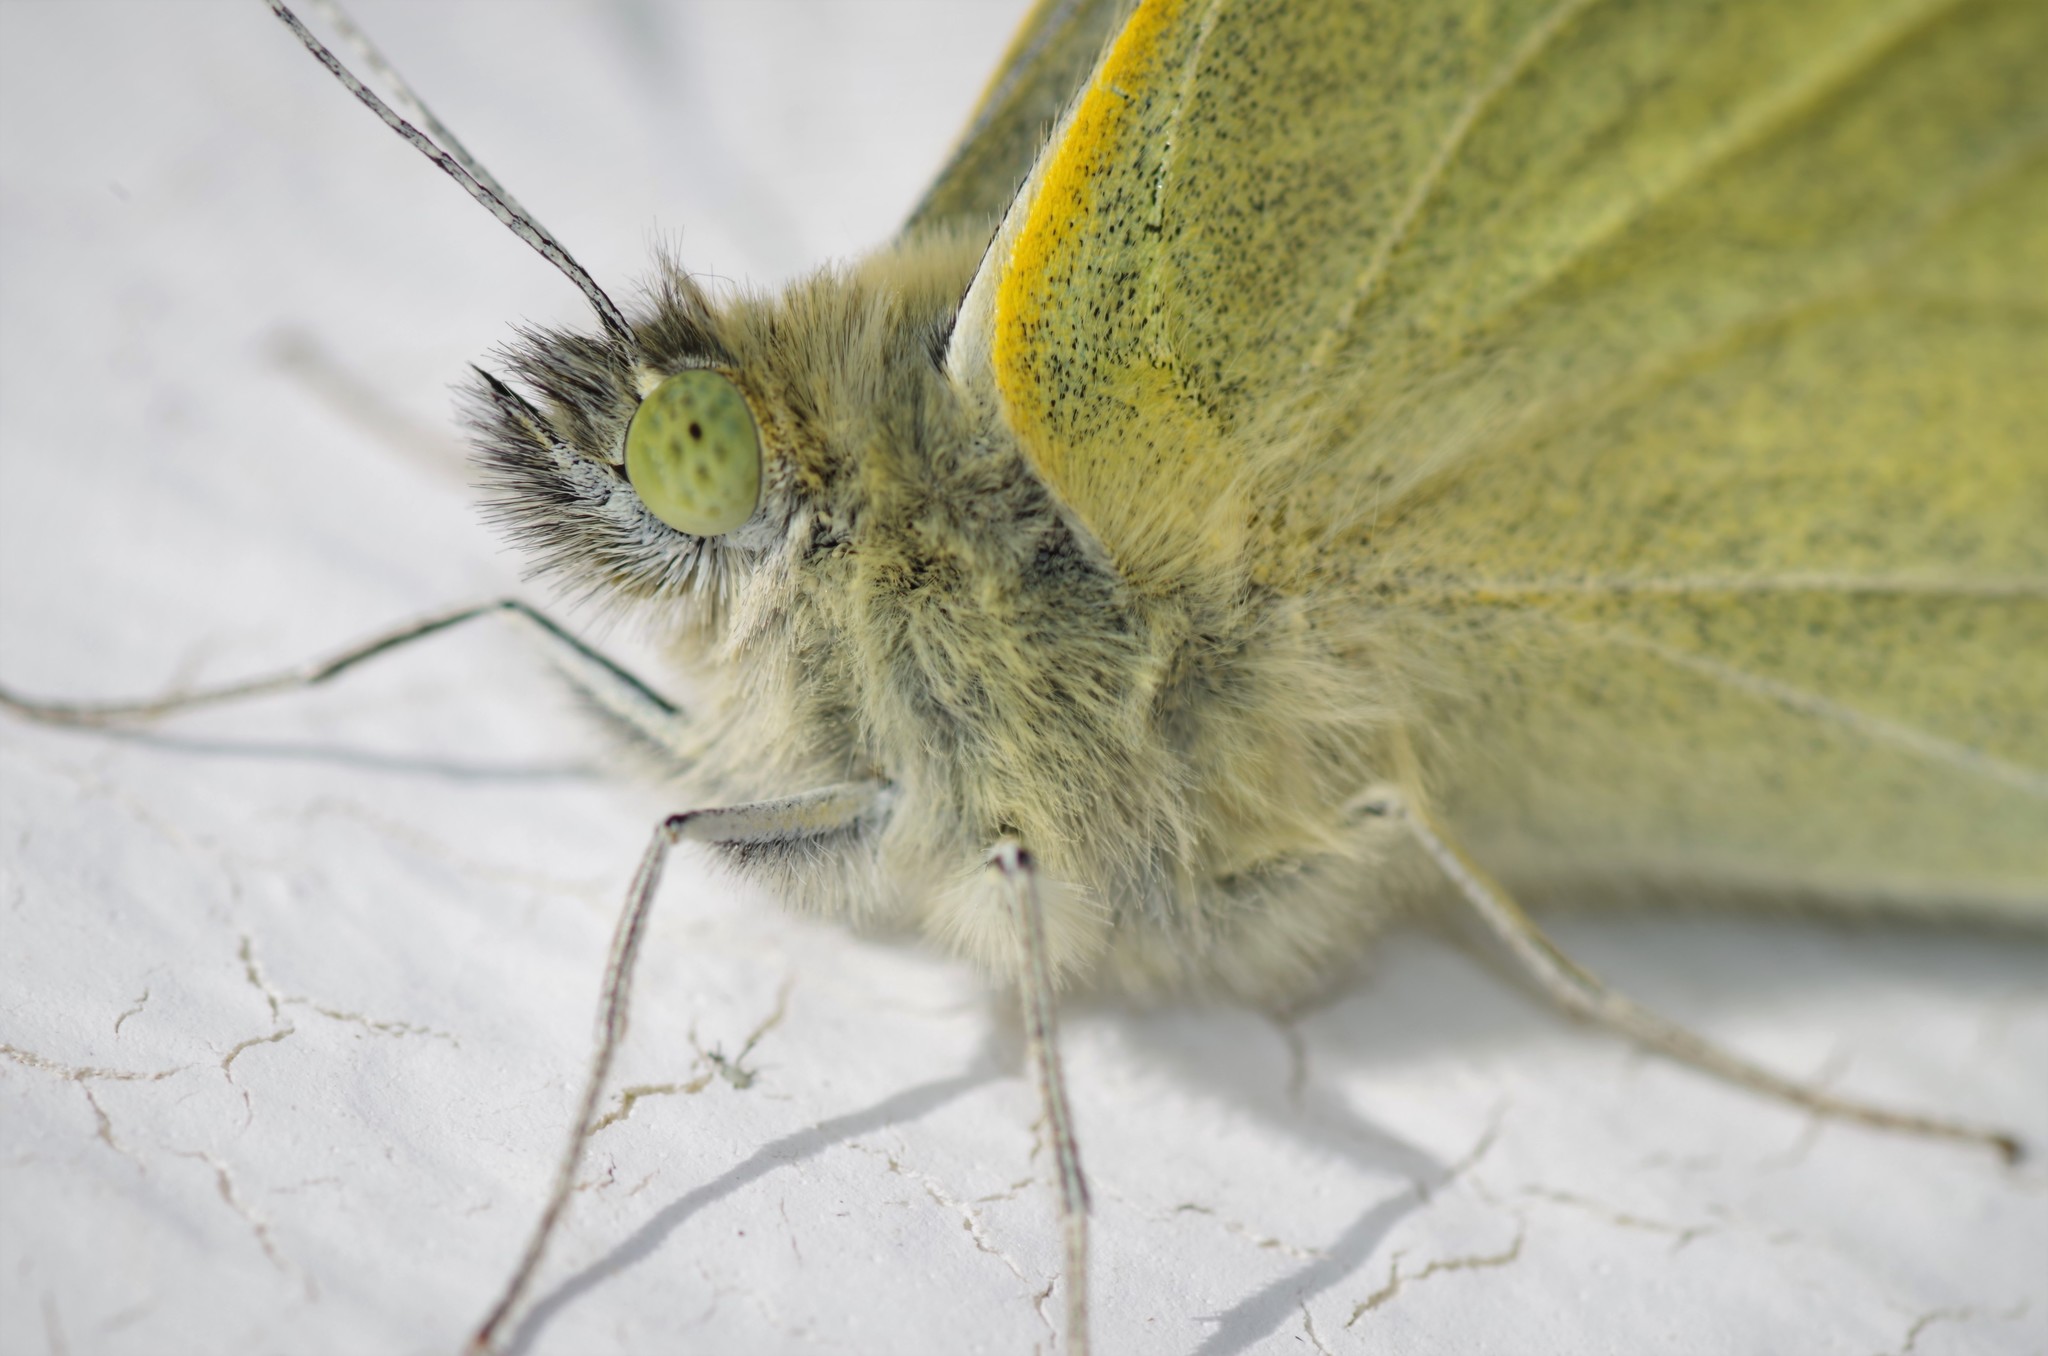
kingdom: Animalia
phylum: Arthropoda
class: Insecta
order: Lepidoptera
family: Pieridae
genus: Pieris
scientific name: Pieris
